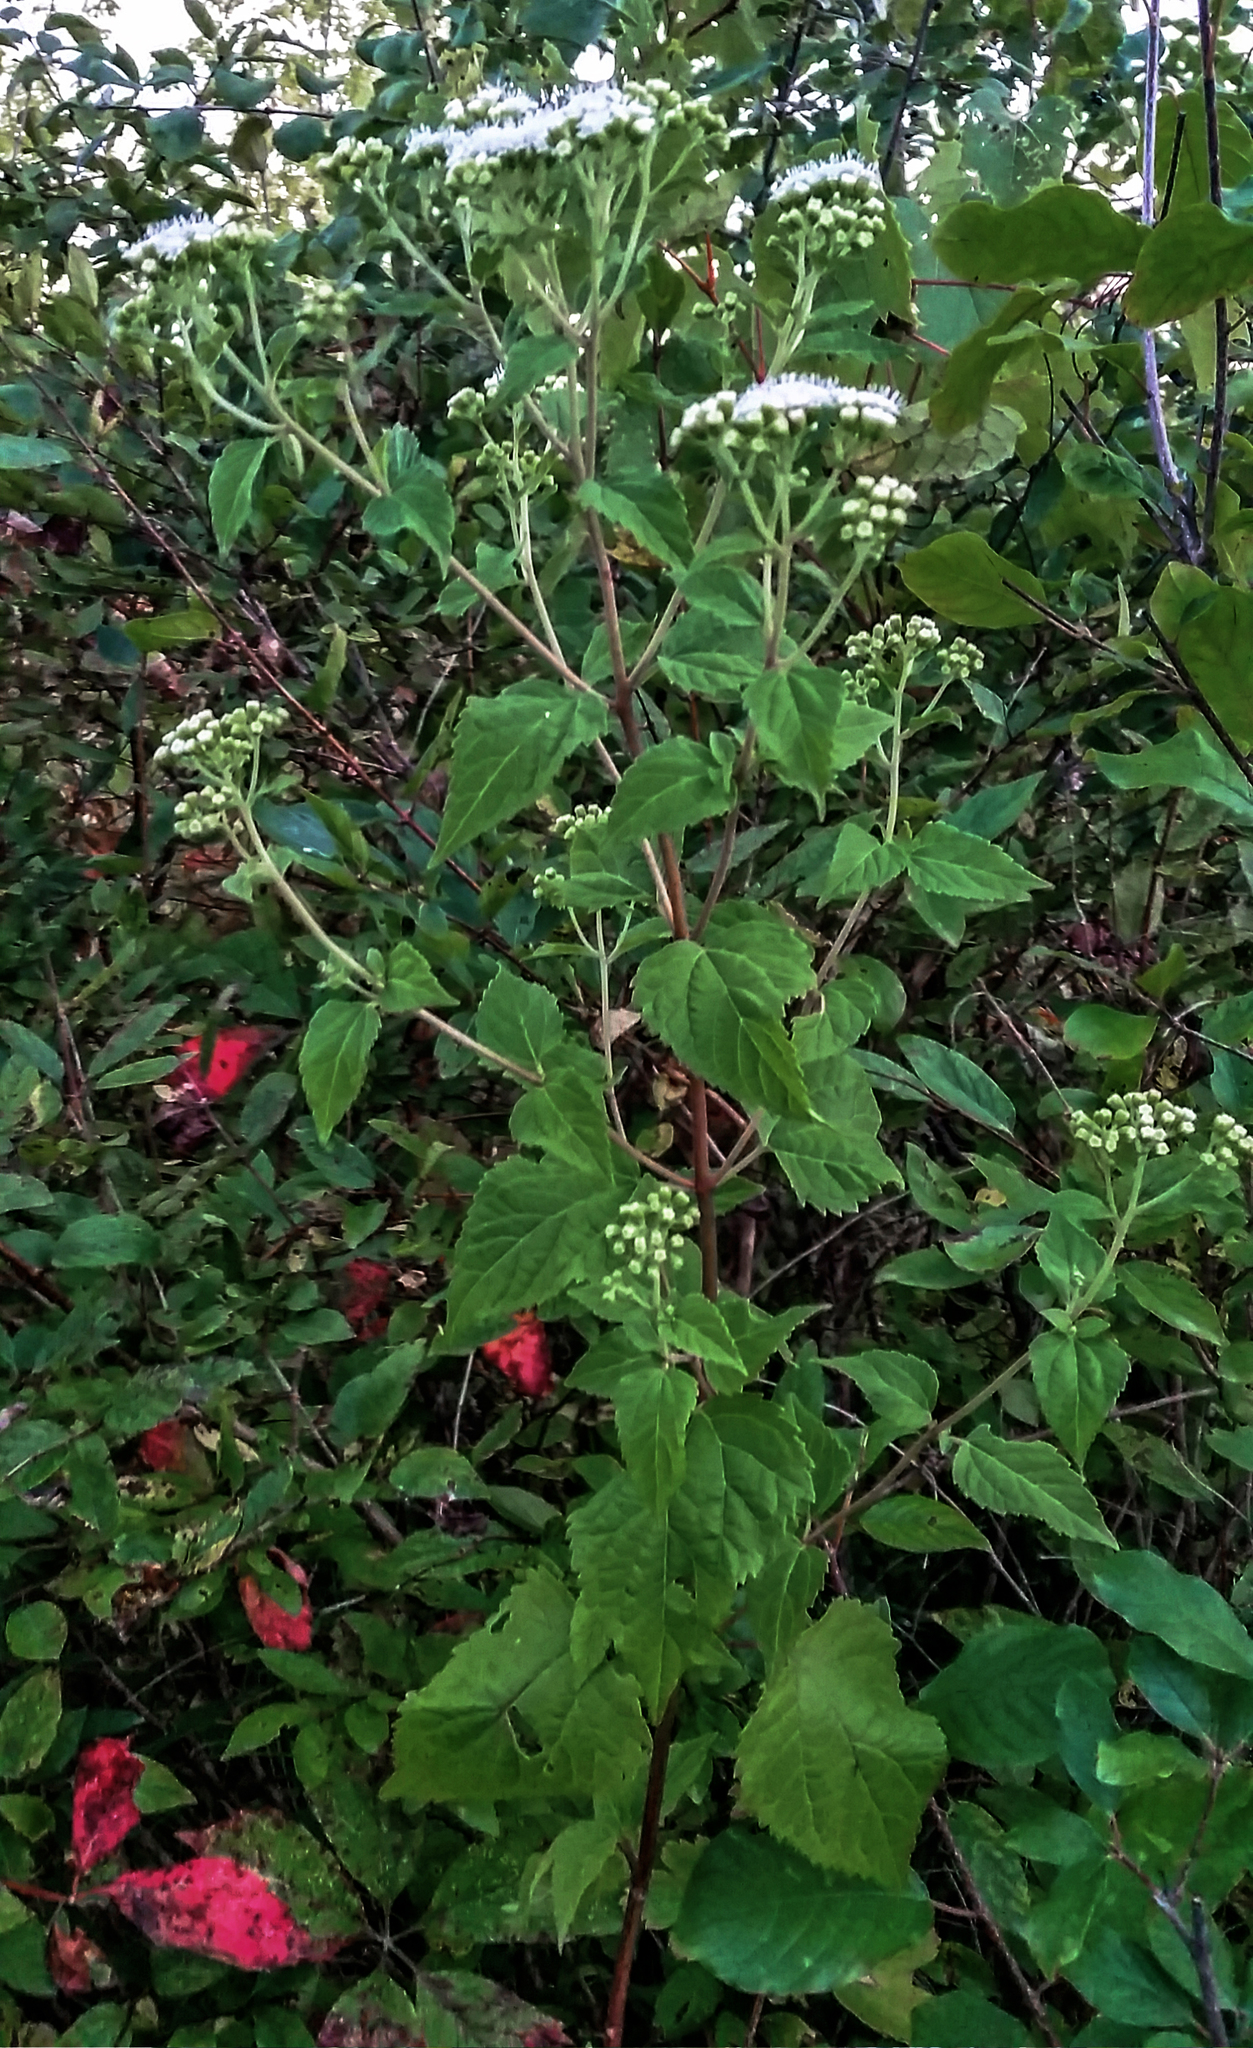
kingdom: Plantae
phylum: Tracheophyta
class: Magnoliopsida
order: Asterales
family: Asteraceae
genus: Ageratina
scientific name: Ageratina altissima
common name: White snakeroot
